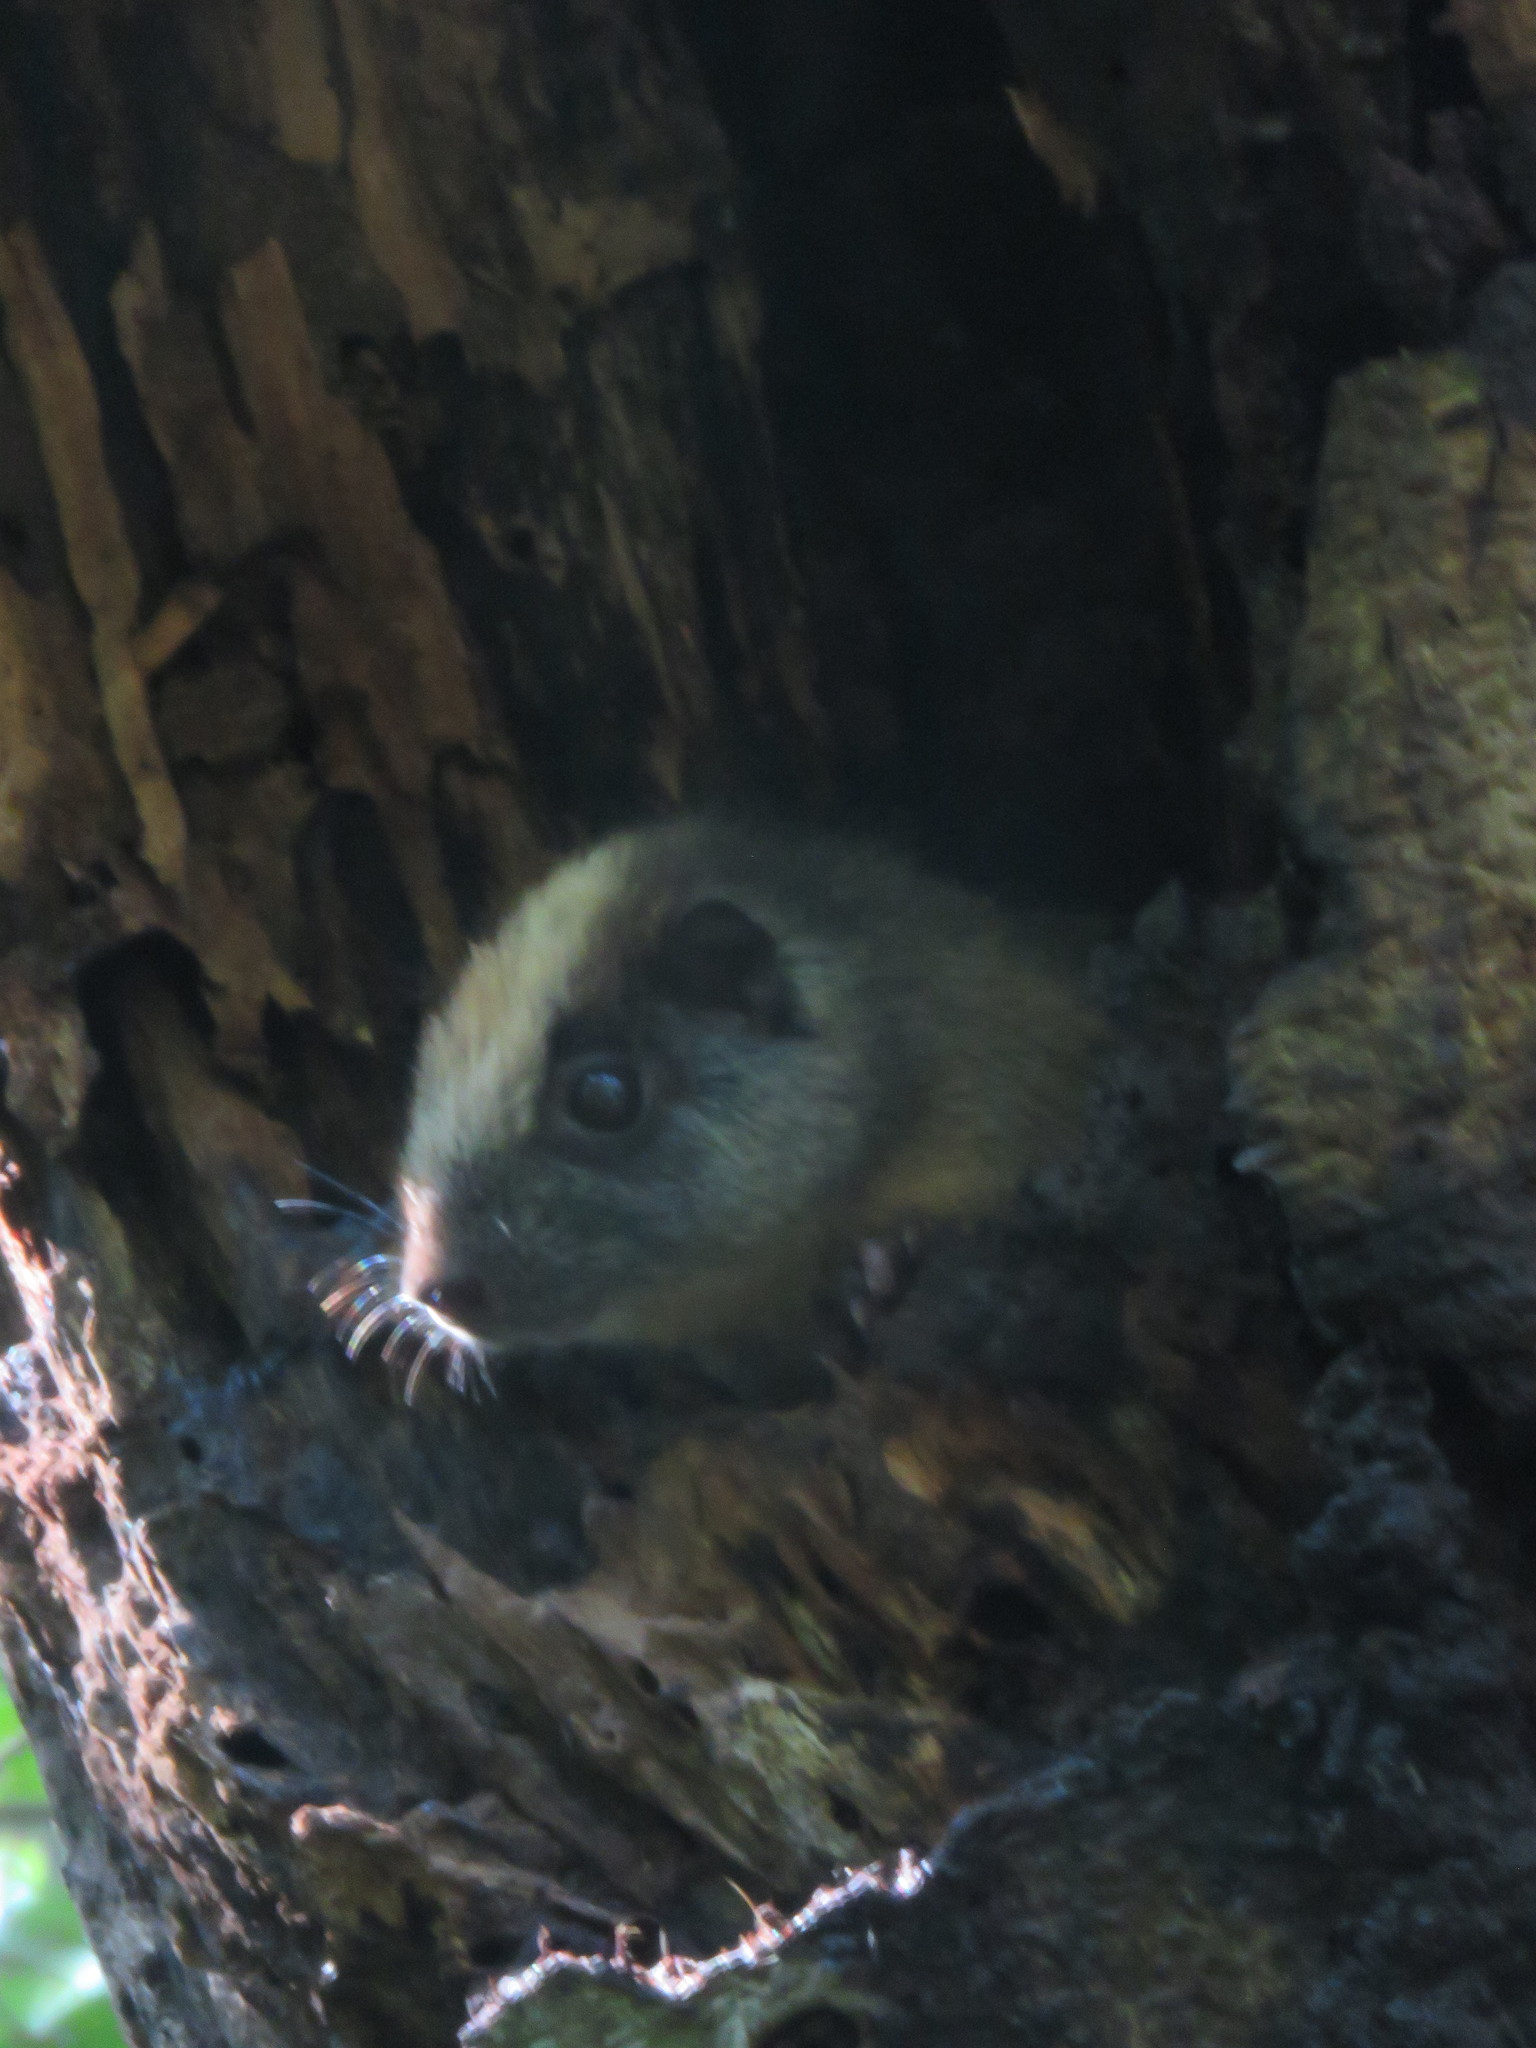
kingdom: Animalia
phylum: Chordata
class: Mammalia
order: Rodentia
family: Echimyidae
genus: Isothrix
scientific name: Isothrix bistriata
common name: Yellow-crowned brush-tailed rat
